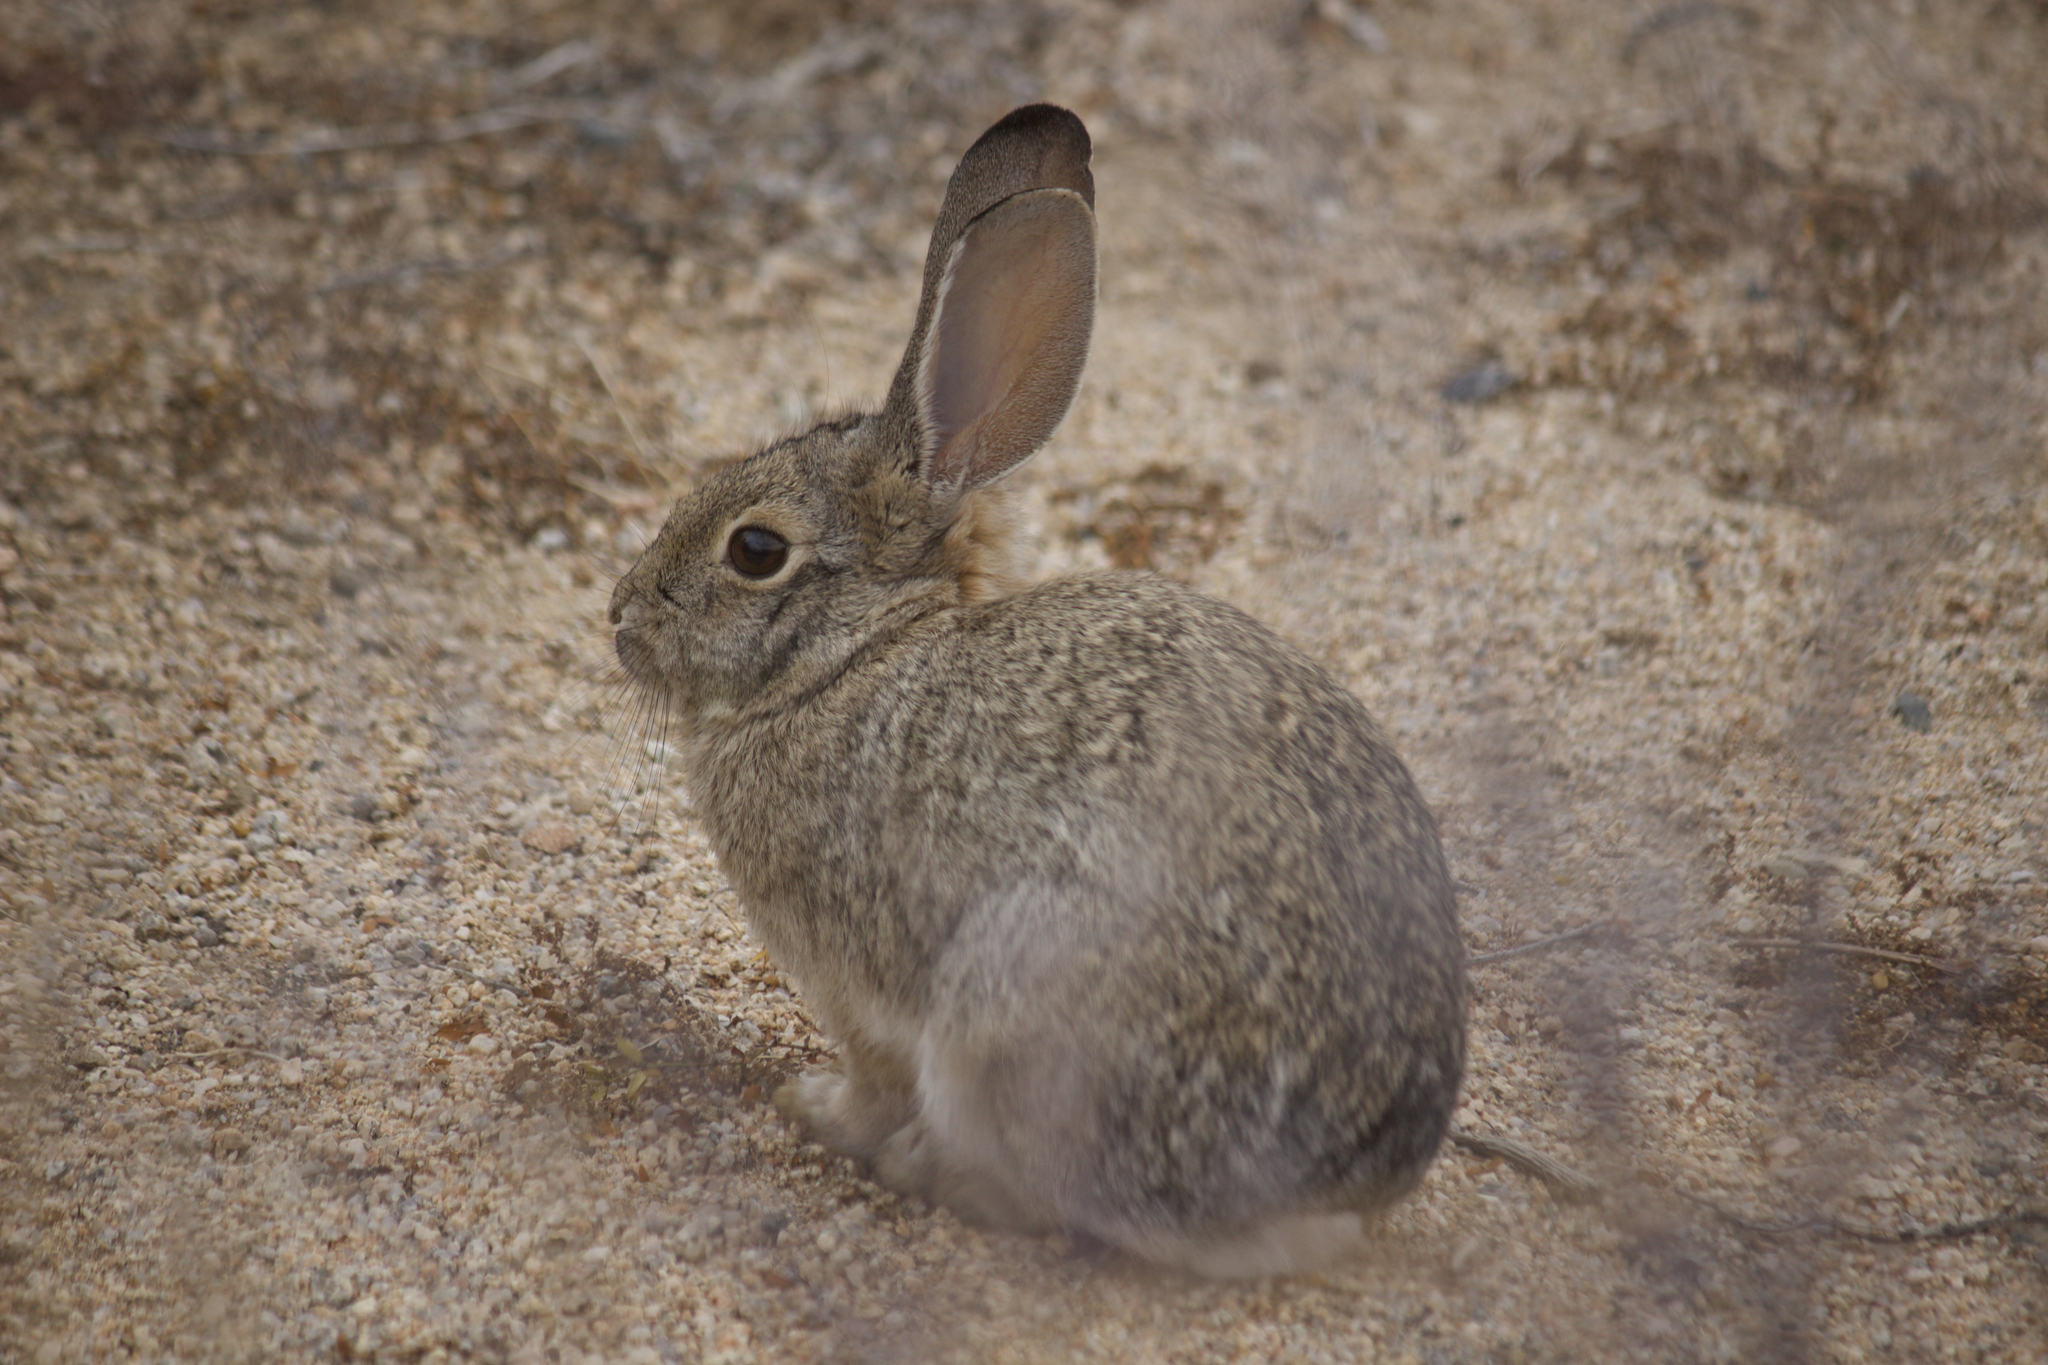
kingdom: Animalia
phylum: Chordata
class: Mammalia
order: Lagomorpha
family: Leporidae
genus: Sylvilagus
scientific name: Sylvilagus audubonii
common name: Desert cottontail
